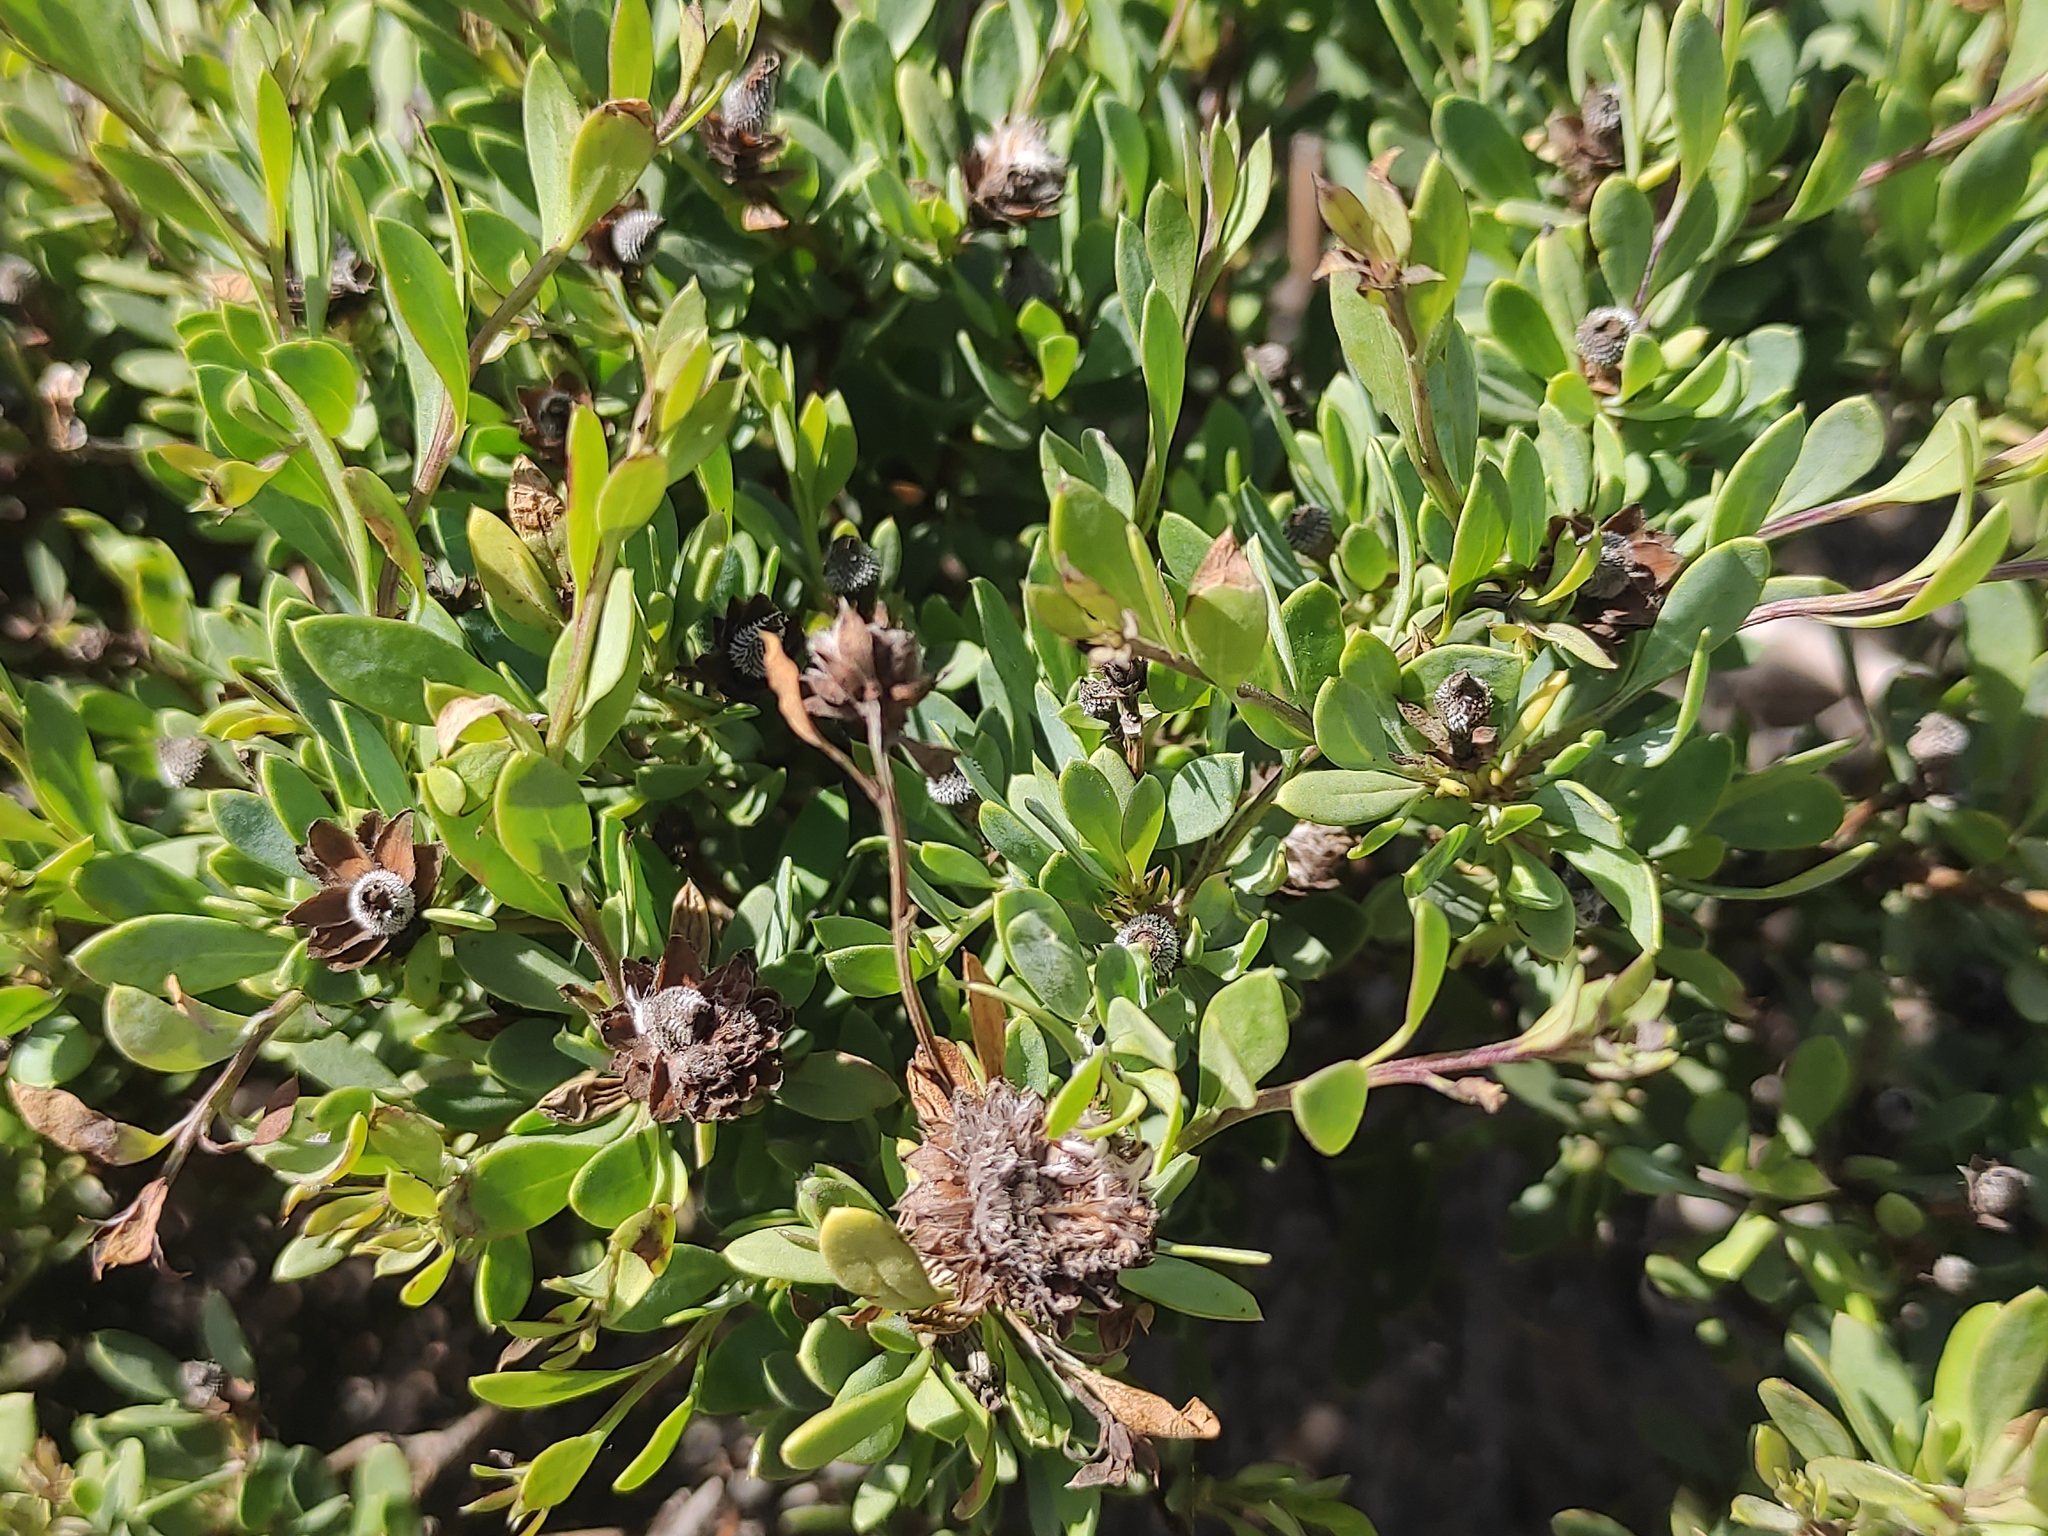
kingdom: Plantae
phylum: Tracheophyta
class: Magnoliopsida
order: Lamiales
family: Plantaginaceae
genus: Globularia
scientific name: Globularia alypum
